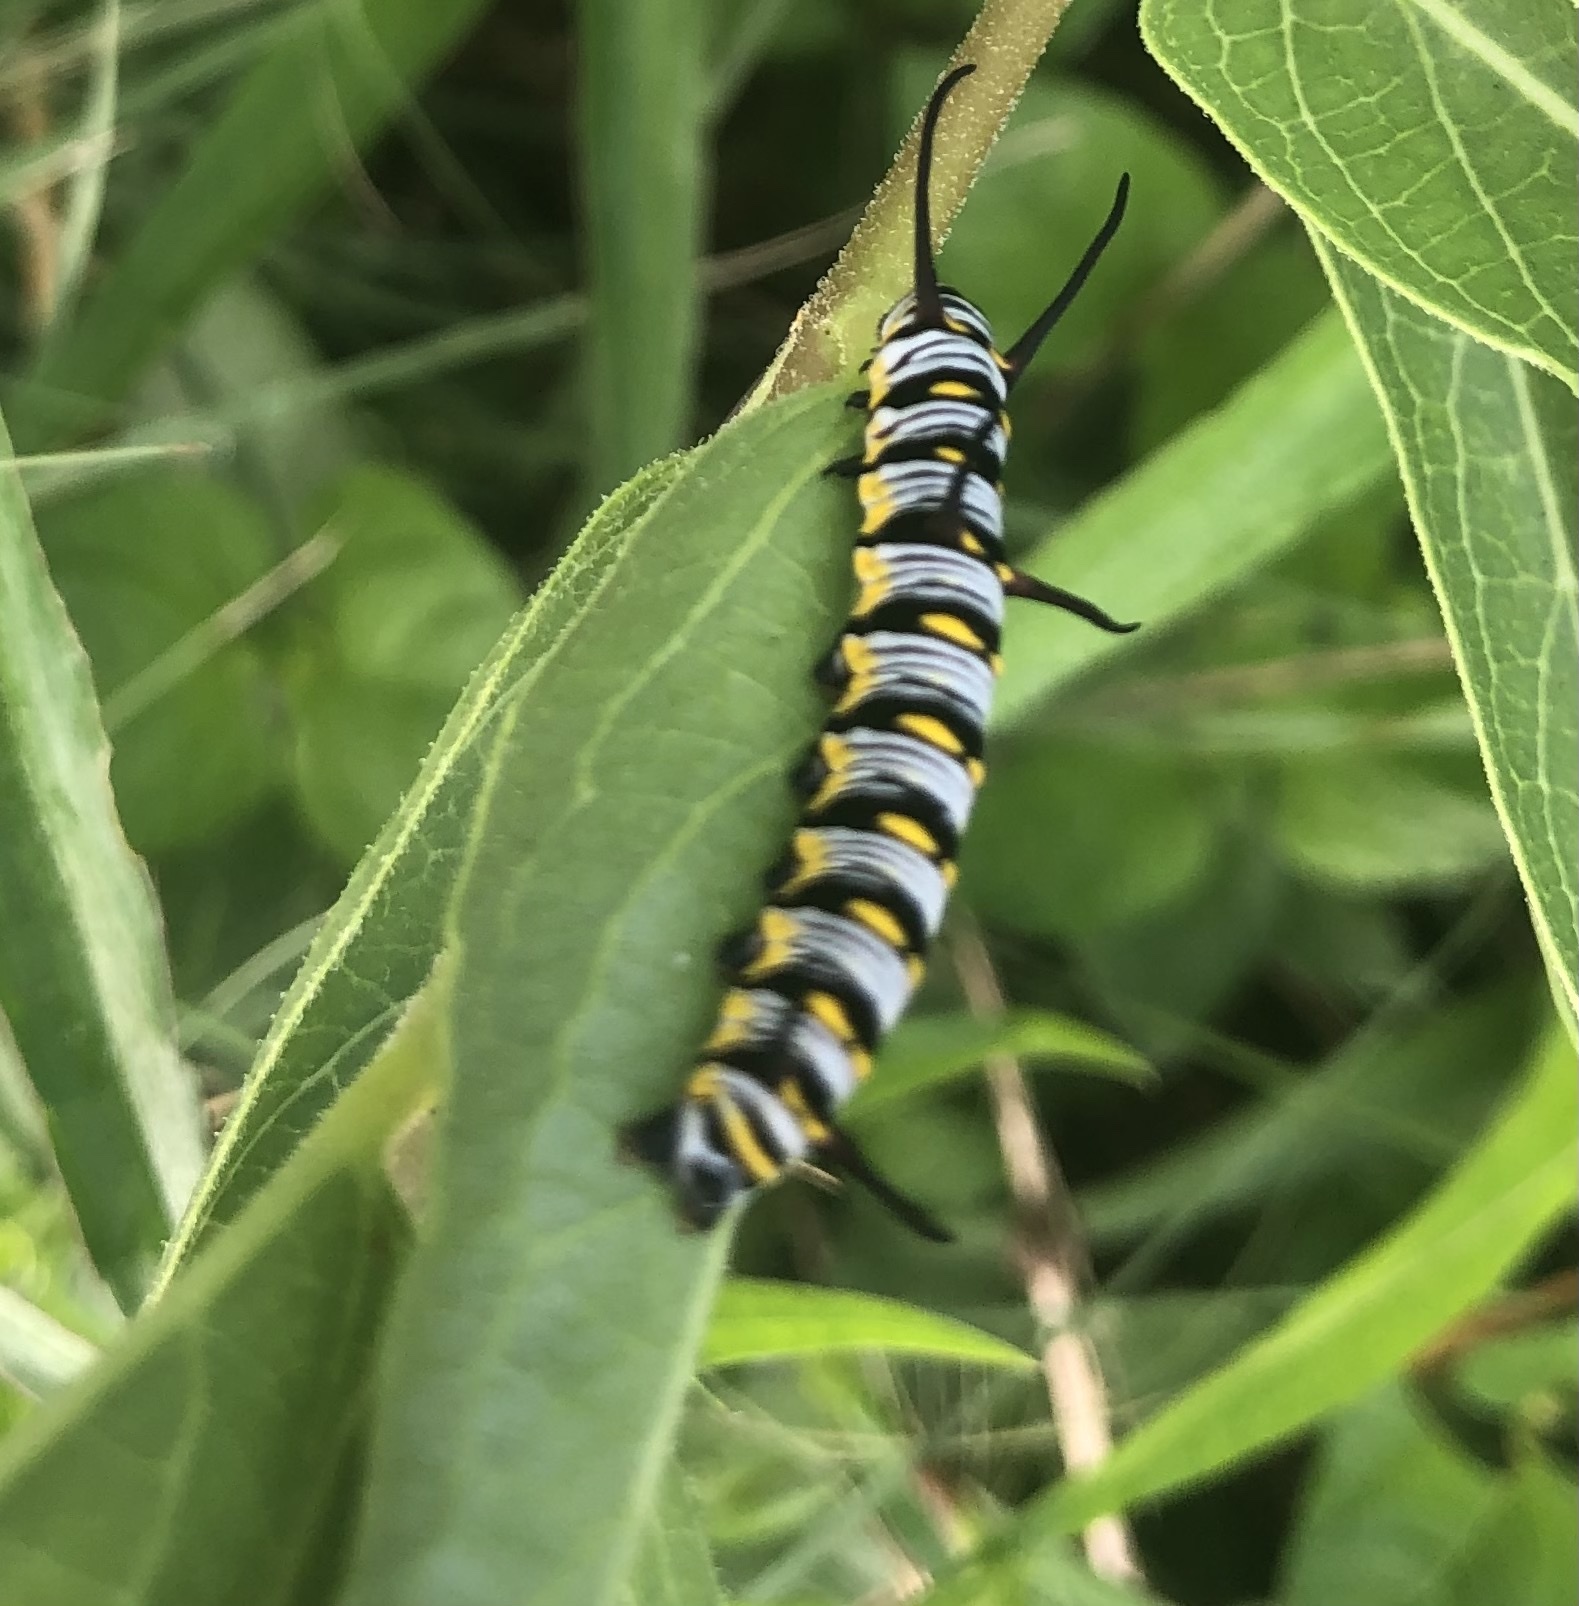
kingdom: Animalia
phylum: Arthropoda
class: Insecta
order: Lepidoptera
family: Nymphalidae
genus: Danaus
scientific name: Danaus gilippus
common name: Queen
